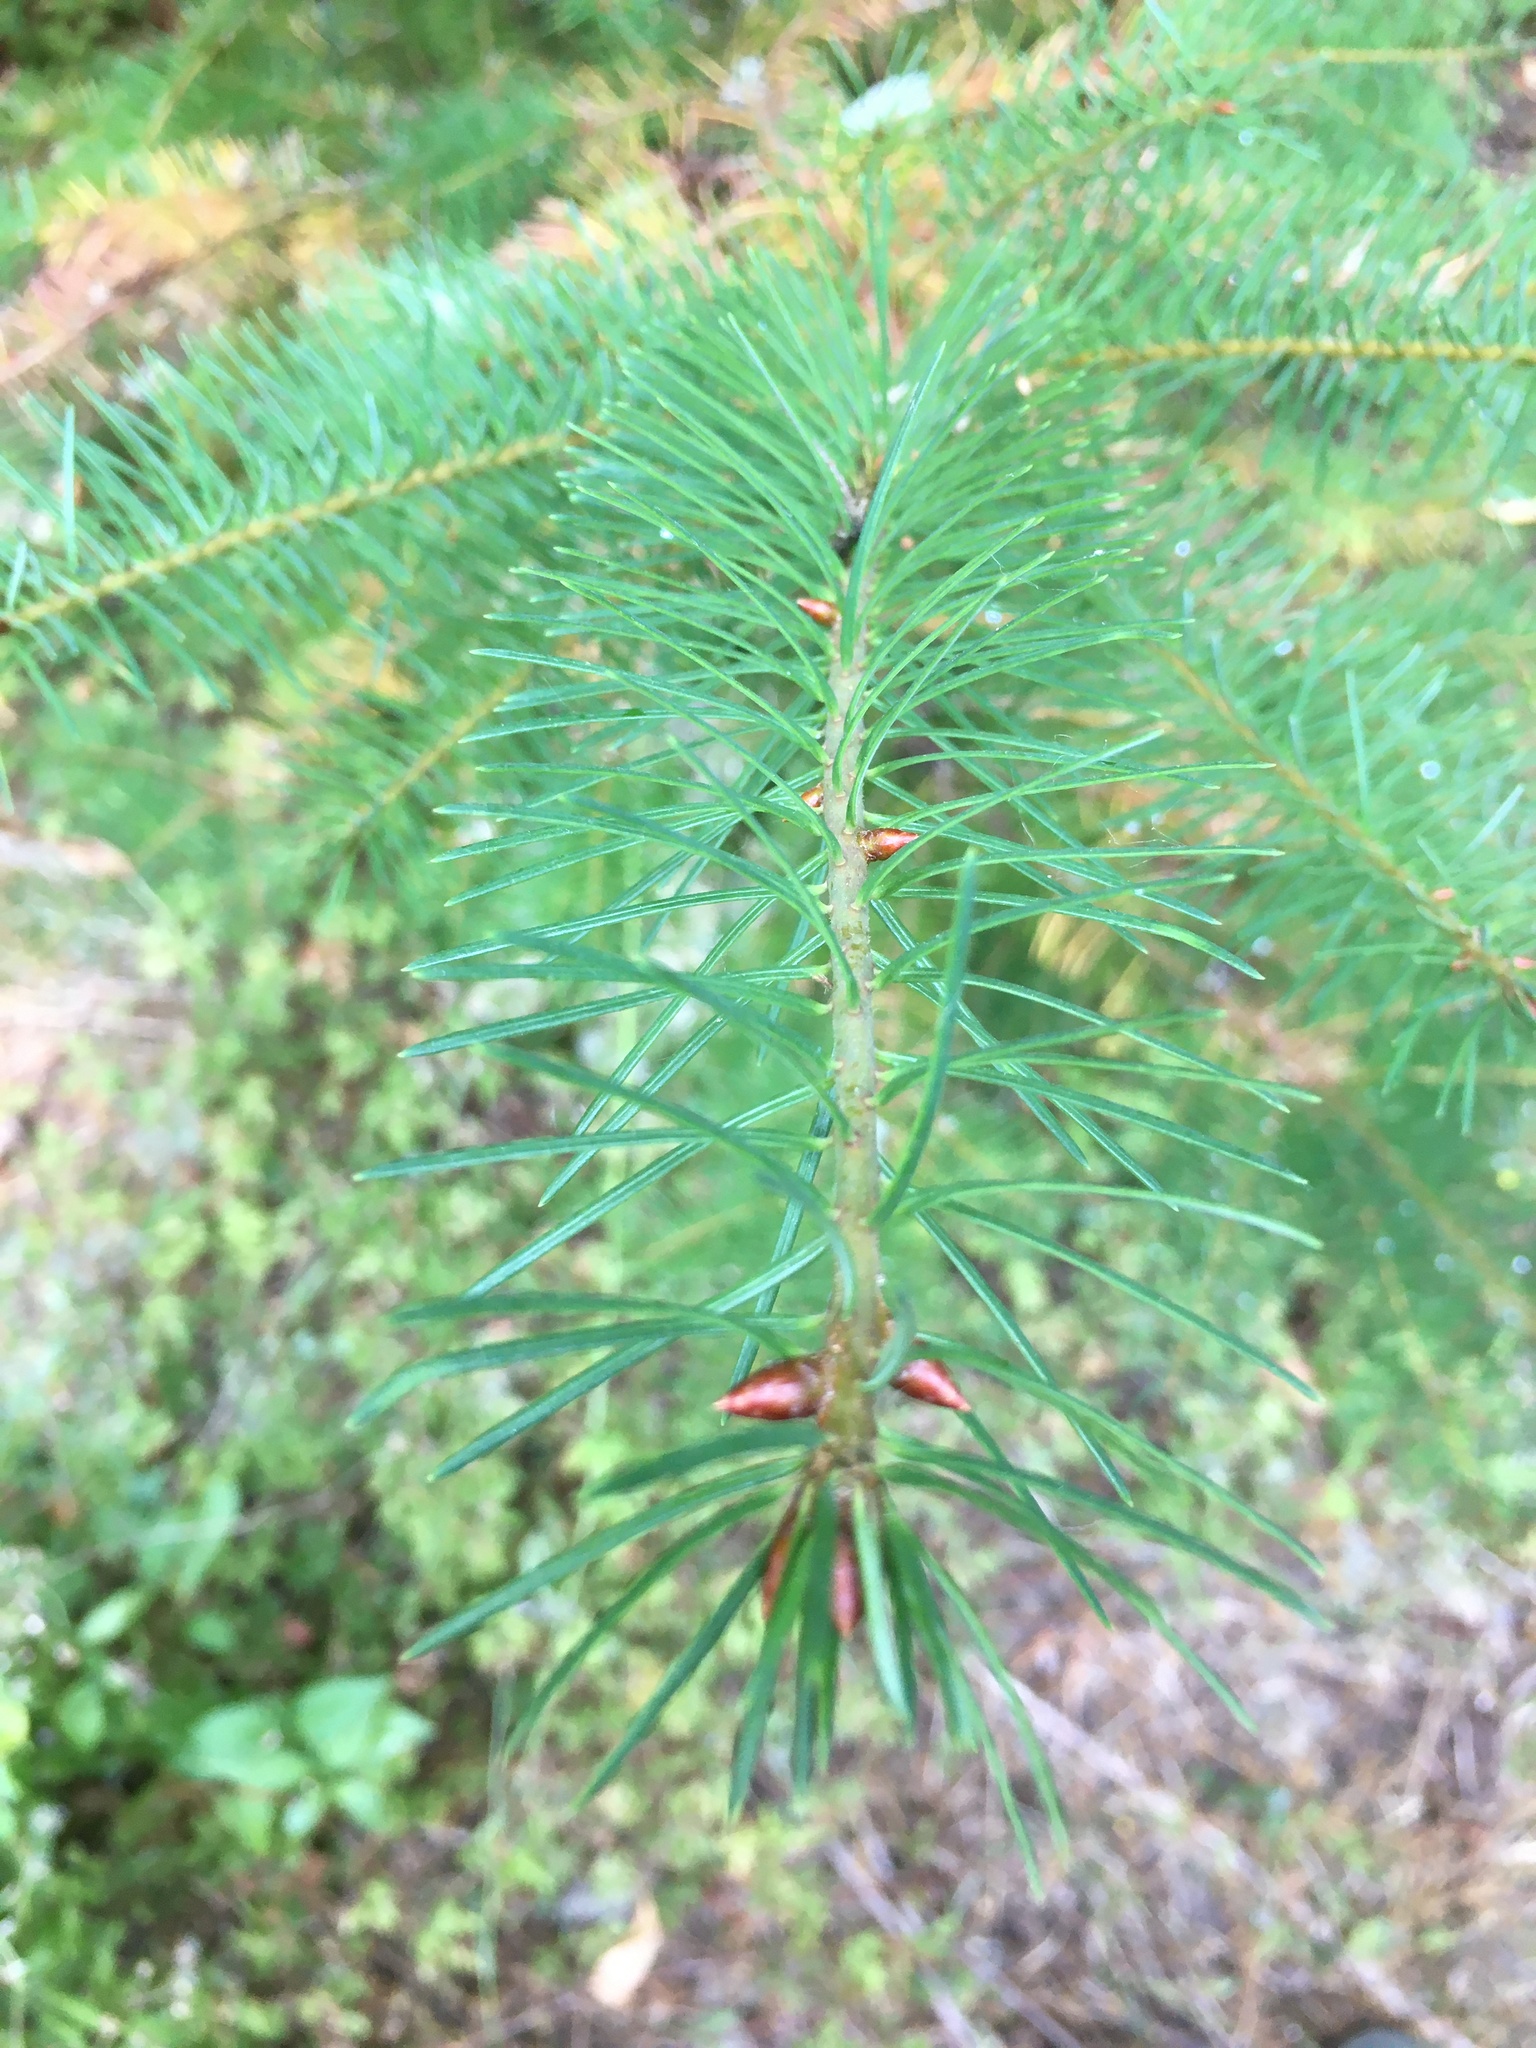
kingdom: Plantae
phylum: Tracheophyta
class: Pinopsida
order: Pinales
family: Pinaceae
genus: Pseudotsuga
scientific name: Pseudotsuga menziesii
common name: Douglas fir
